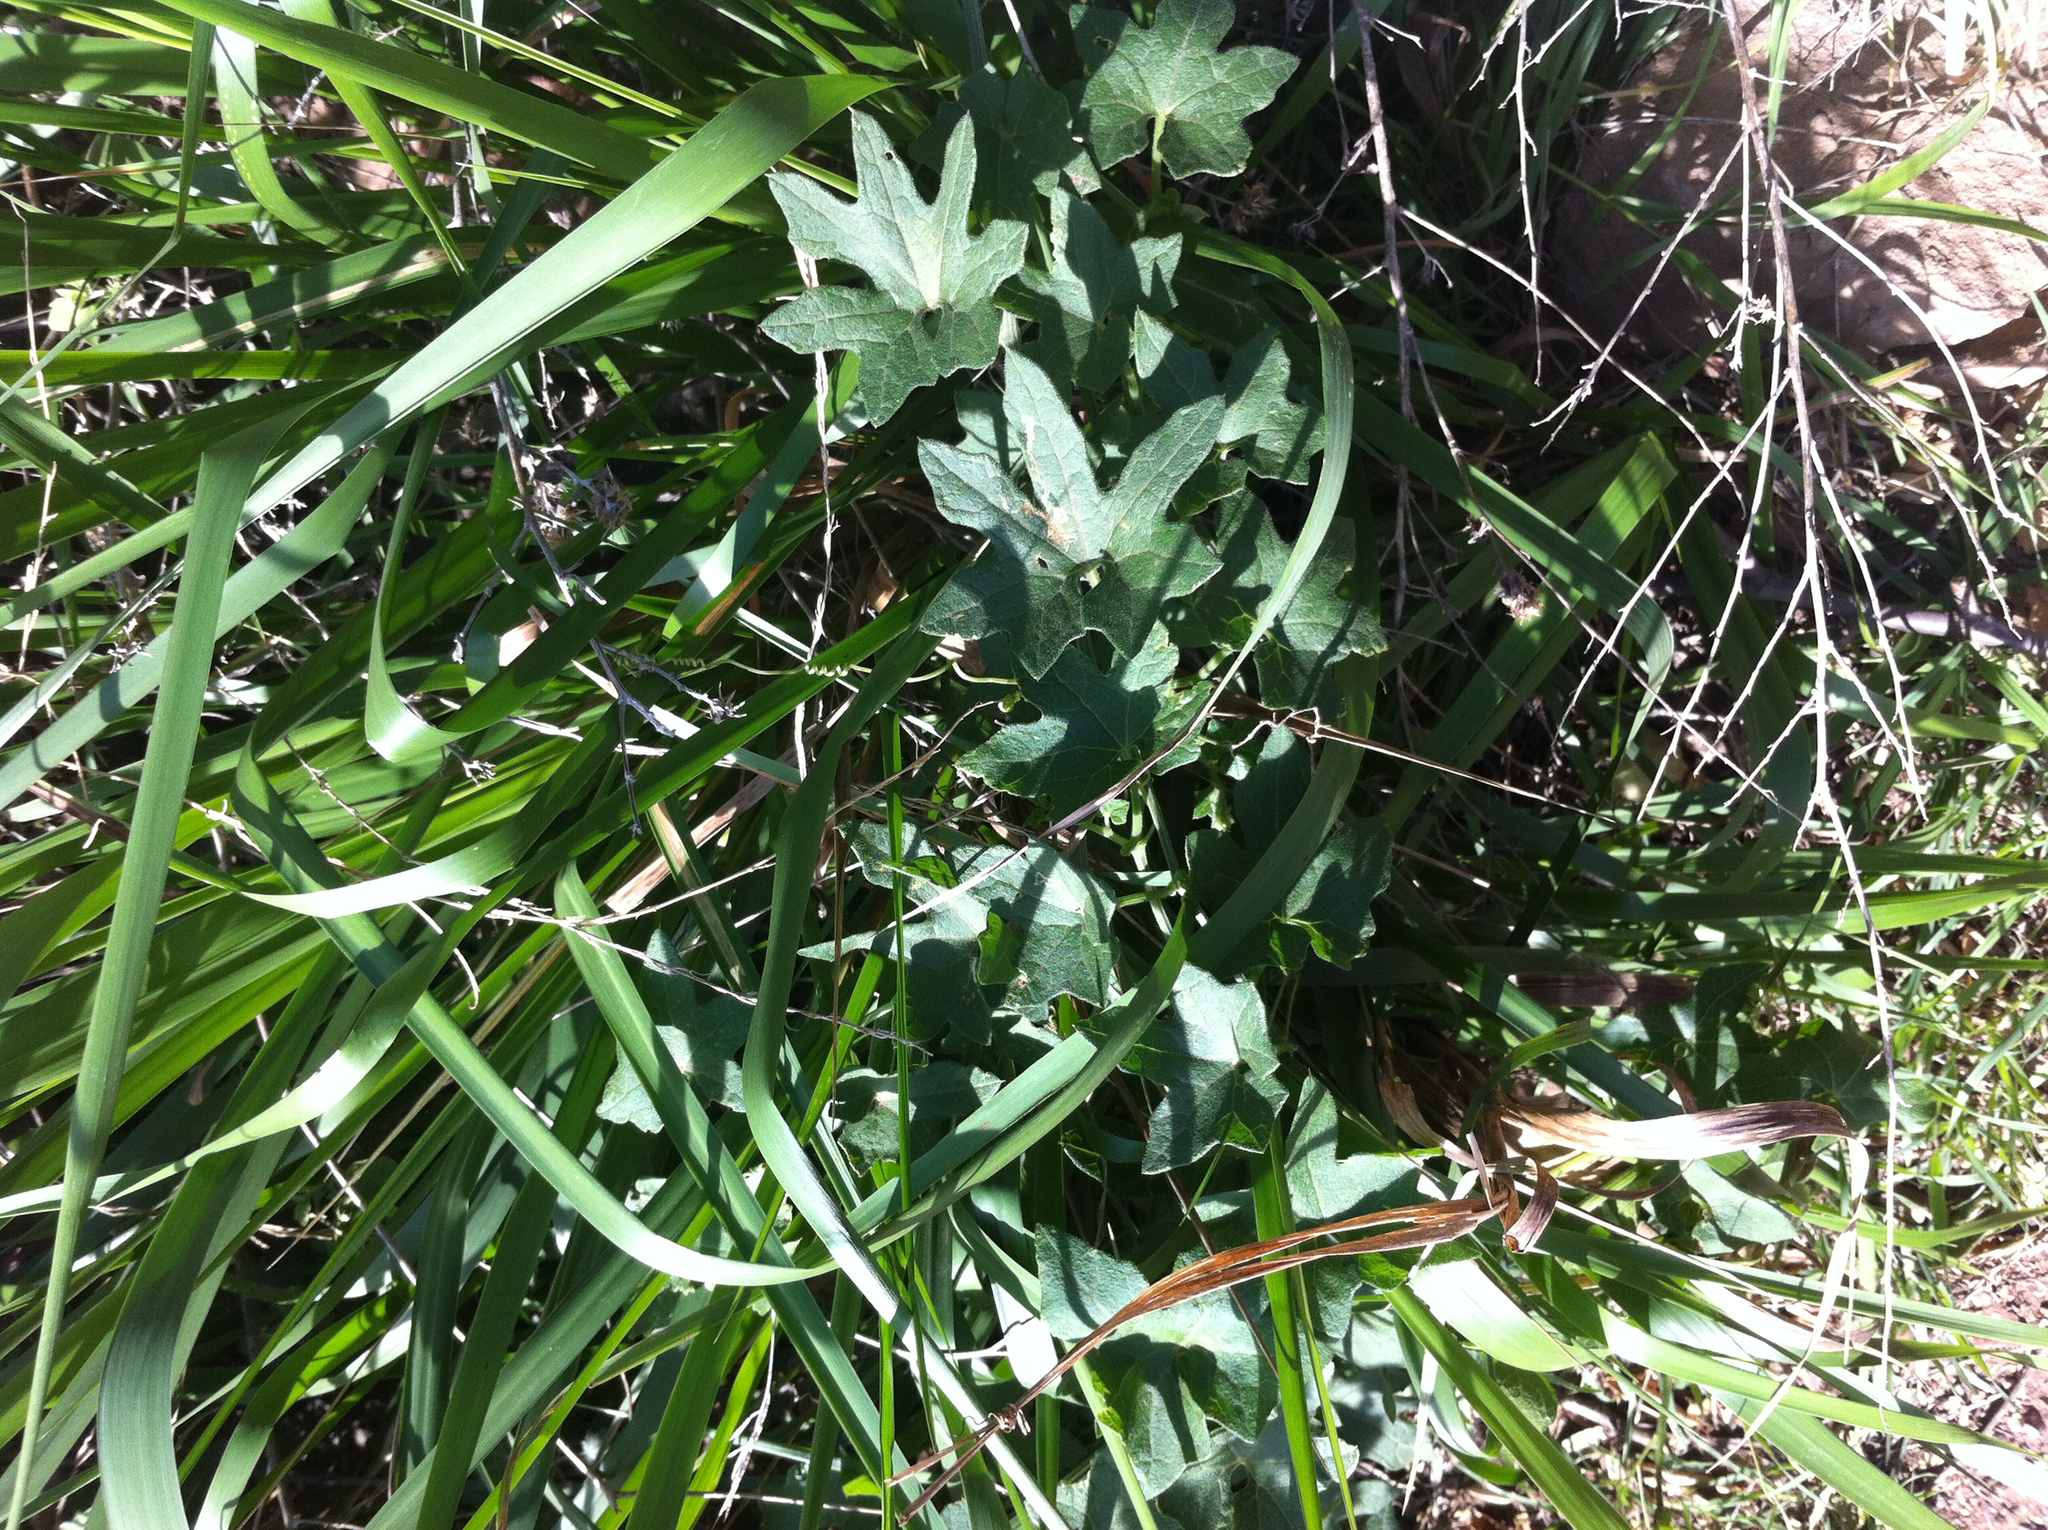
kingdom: Plantae
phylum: Tracheophyta
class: Magnoliopsida
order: Cucurbitales
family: Cucurbitaceae
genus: Marah
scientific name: Marah macrocarpa
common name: Cucamonga manroot
